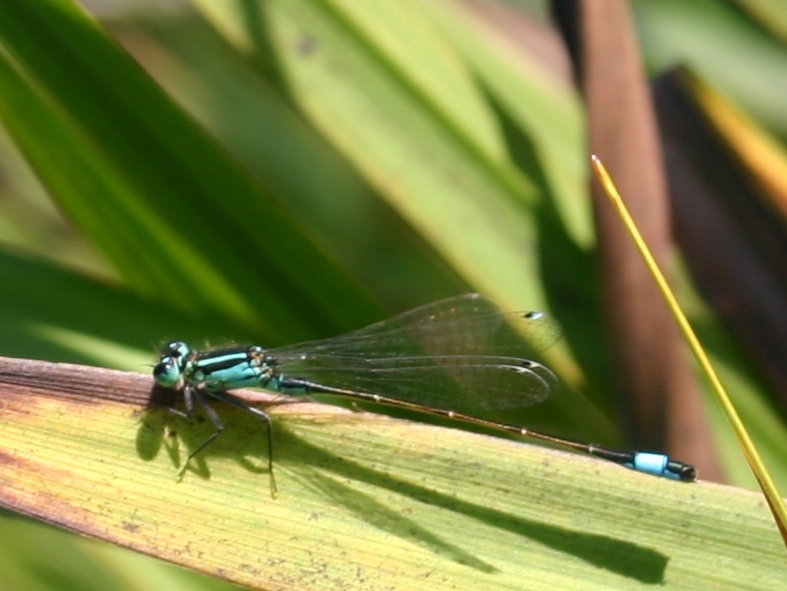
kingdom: Animalia
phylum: Arthropoda
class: Insecta
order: Odonata
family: Coenagrionidae
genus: Ischnura
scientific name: Ischnura elegans
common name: Blue-tailed damselfly
